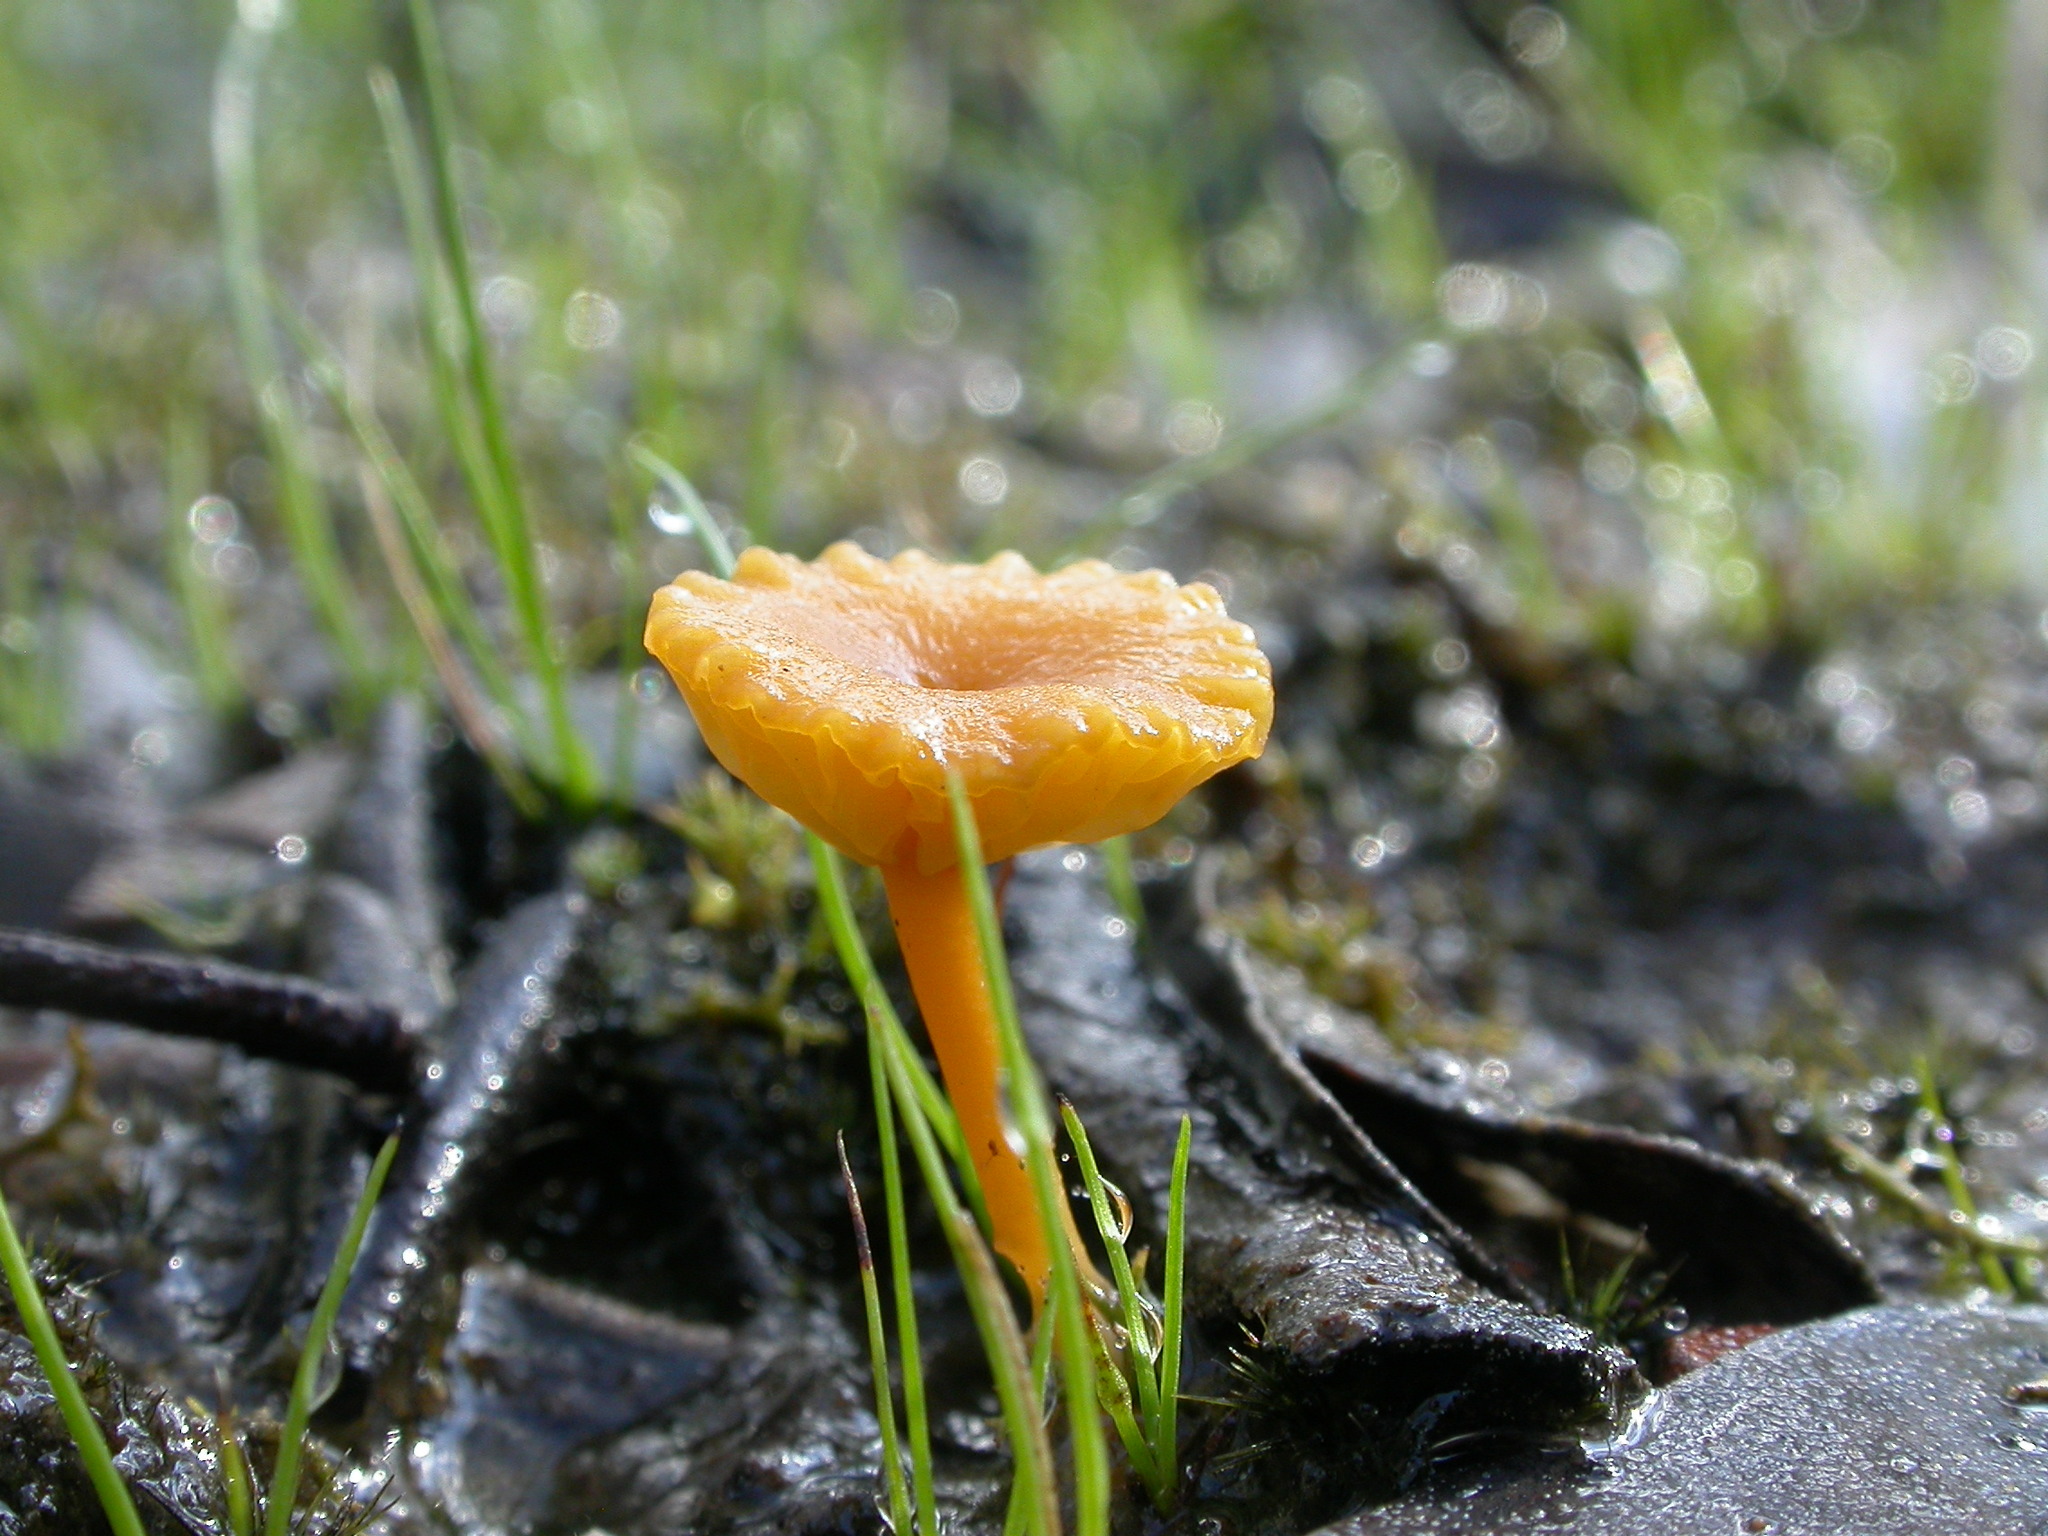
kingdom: Fungi
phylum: Basidiomycota
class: Agaricomycetes
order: Agaricales
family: Hygrophoraceae
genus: Lichenomphalia
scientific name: Lichenomphalia chromacea
